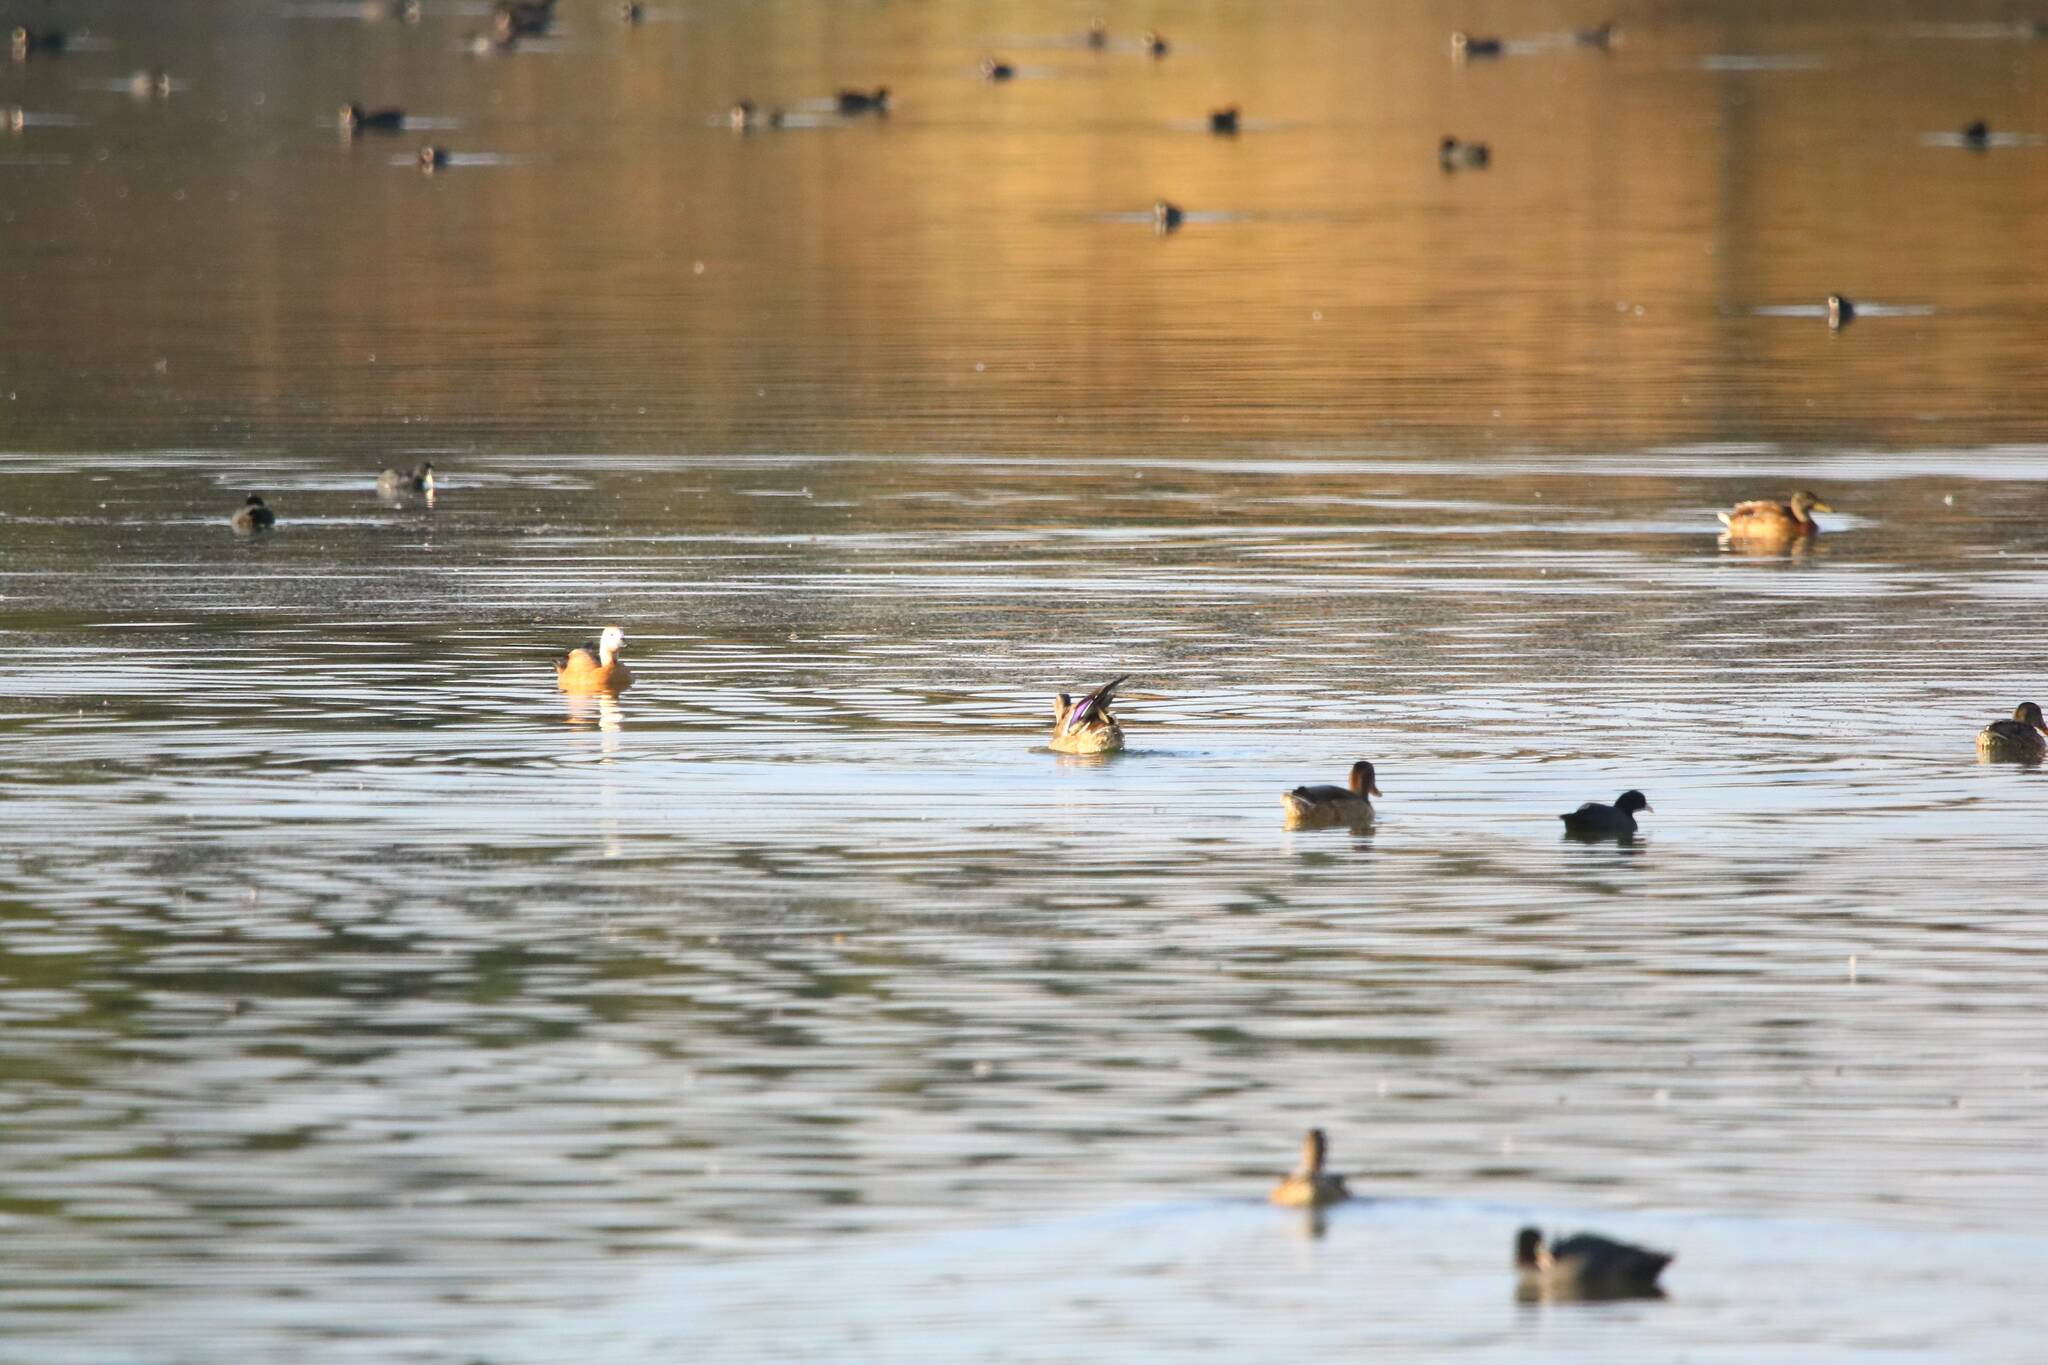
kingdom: Animalia
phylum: Chordata
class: Aves
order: Anseriformes
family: Anatidae
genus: Anas
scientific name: Anas platyrhynchos
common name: Mallard
